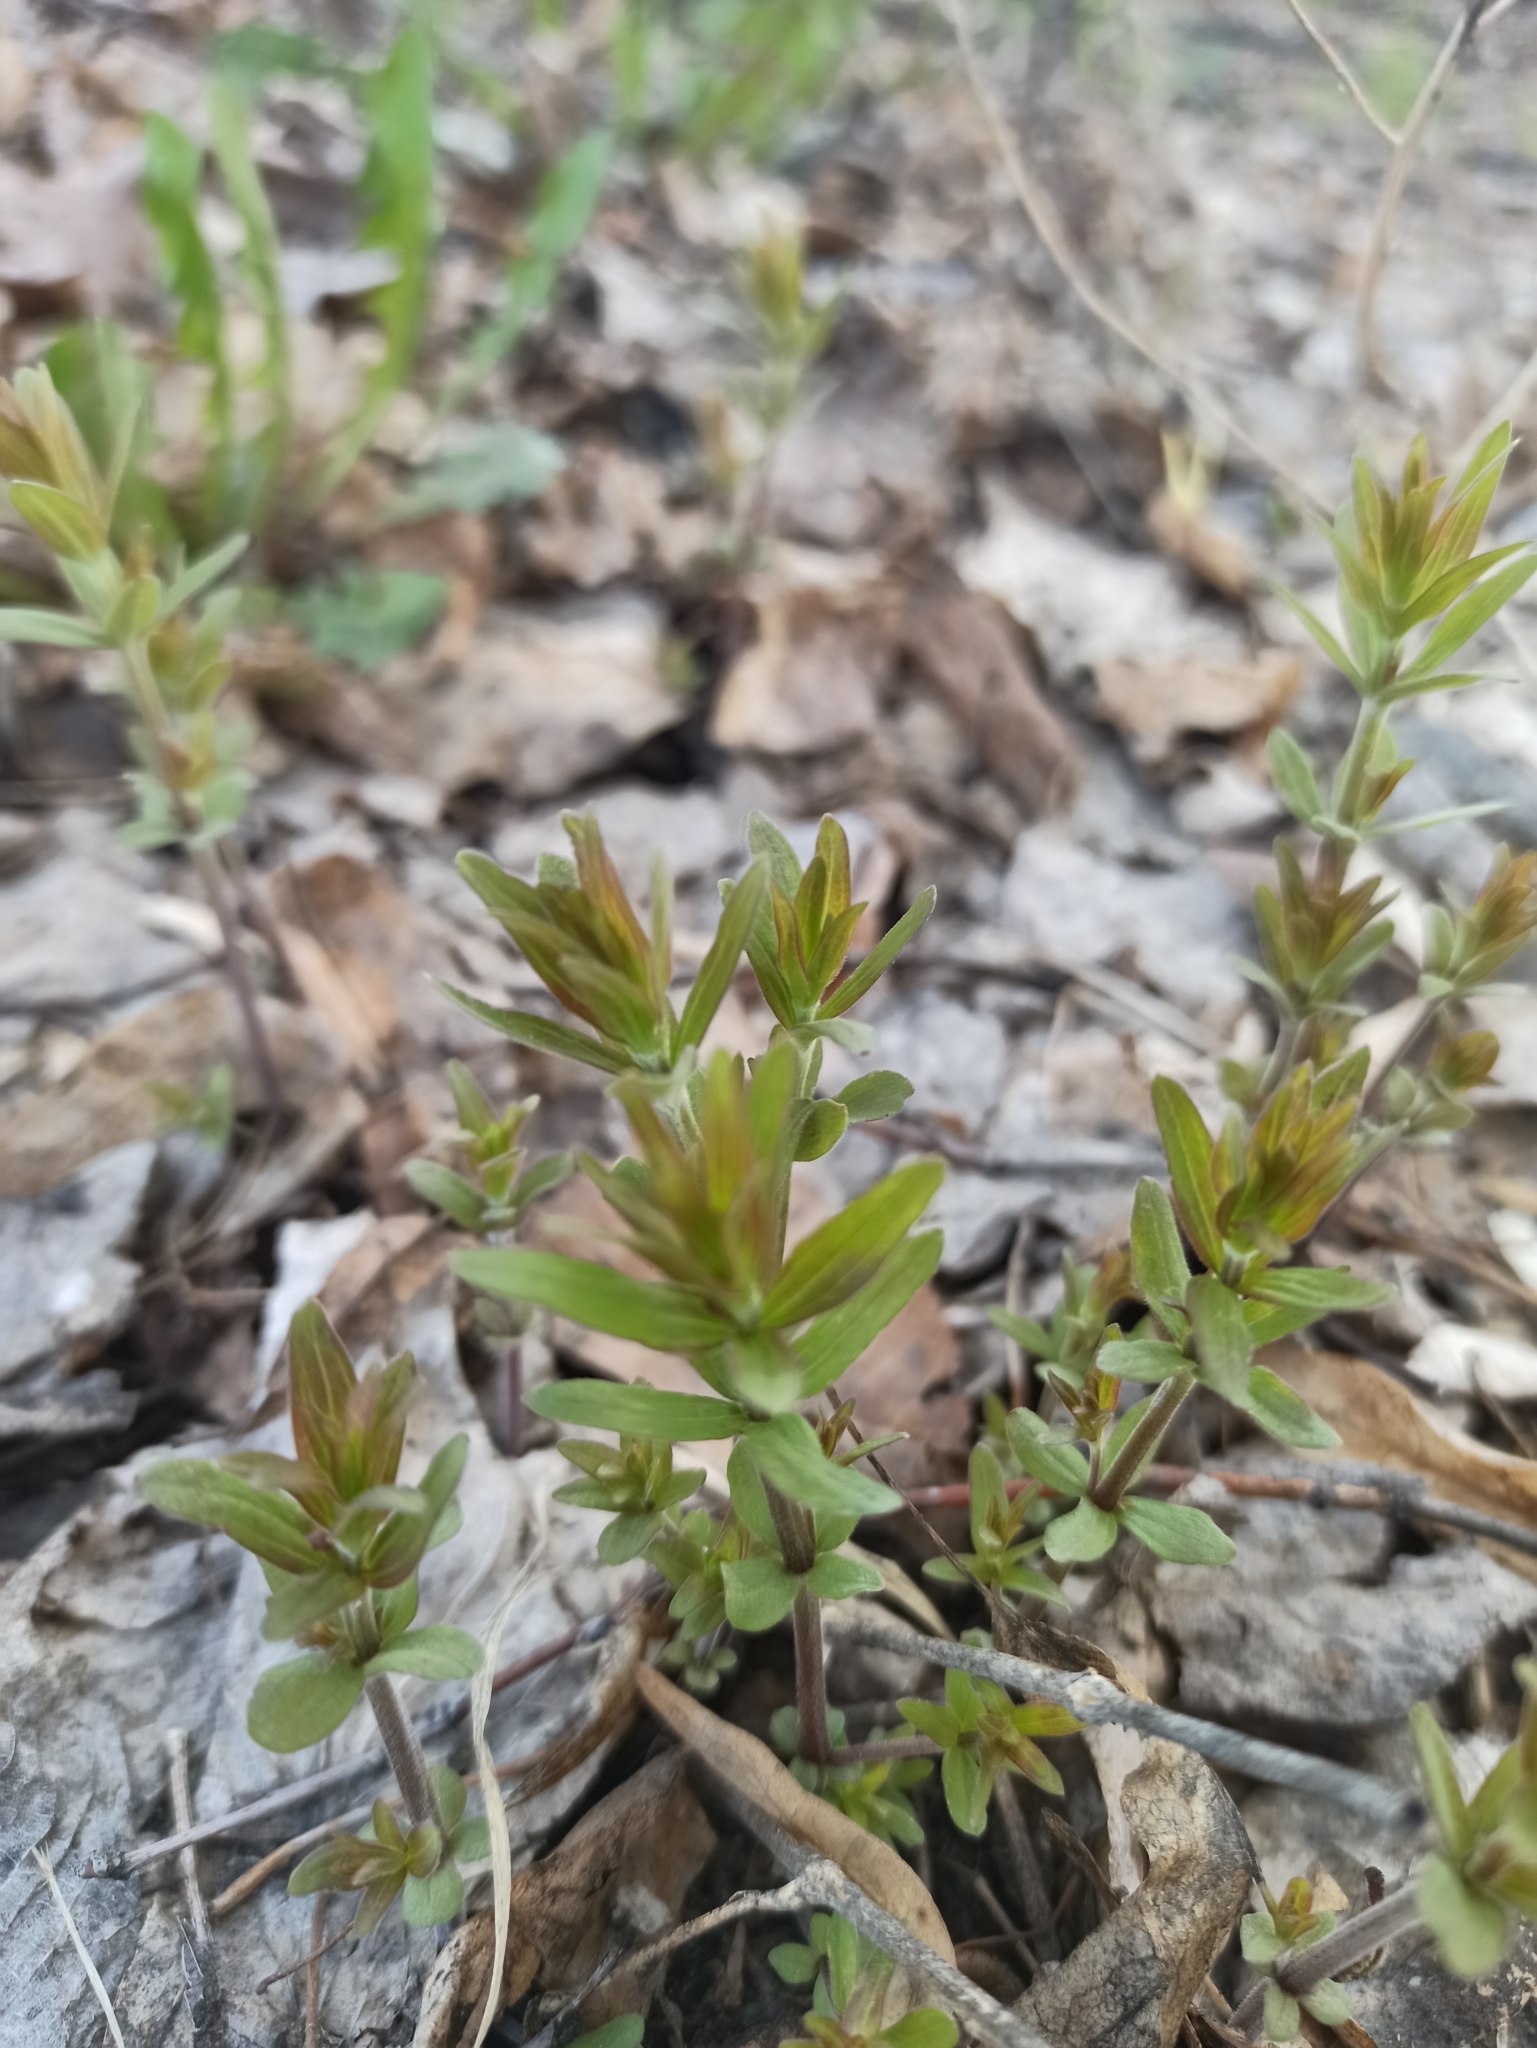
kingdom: Plantae
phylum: Tracheophyta
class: Magnoliopsida
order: Gentianales
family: Rubiaceae
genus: Galium
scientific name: Galium rubioides
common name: European bedstraw
